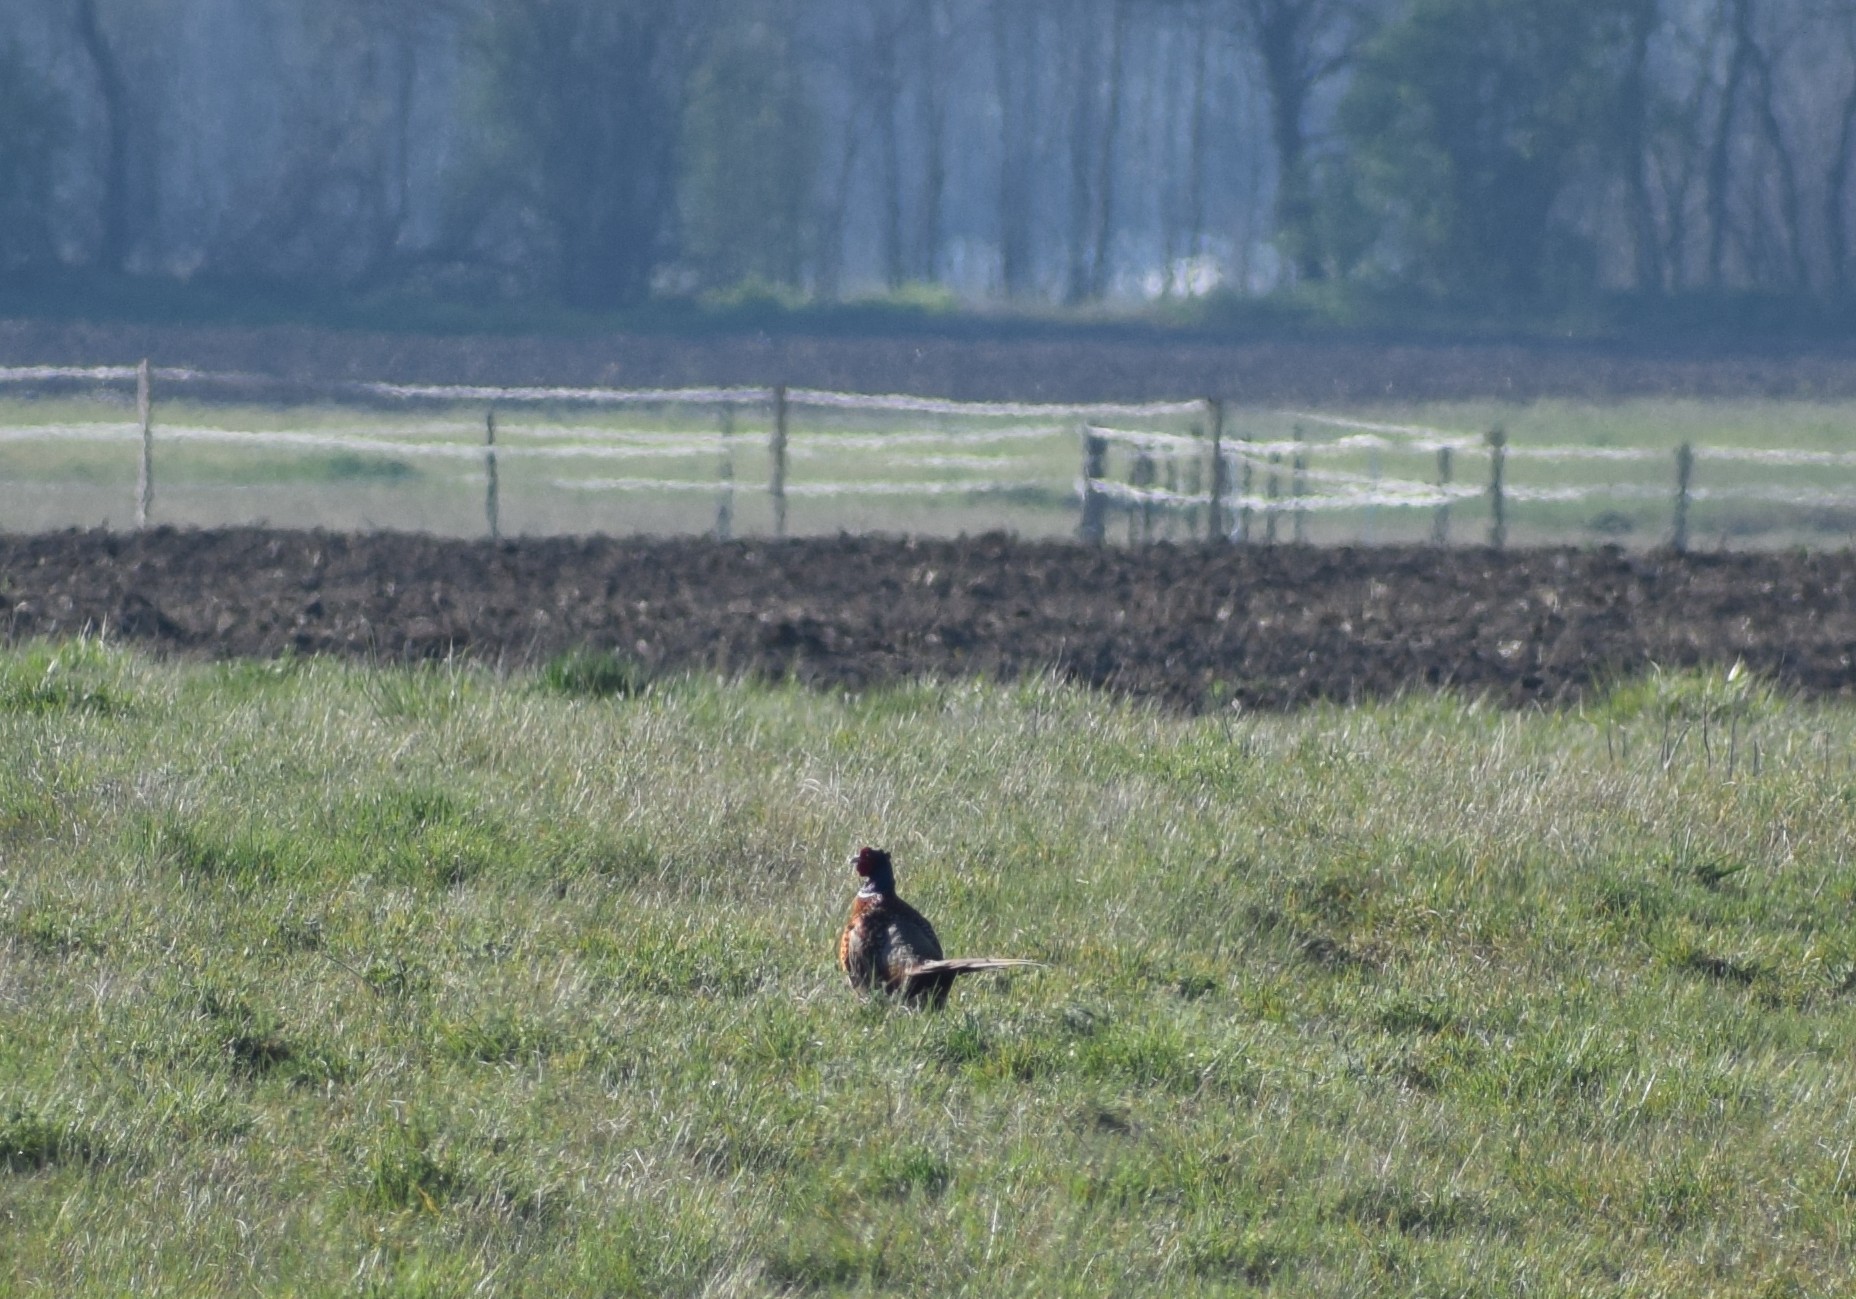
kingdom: Animalia
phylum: Chordata
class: Aves
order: Galliformes
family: Phasianidae
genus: Phasianus
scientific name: Phasianus colchicus
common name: Common pheasant
